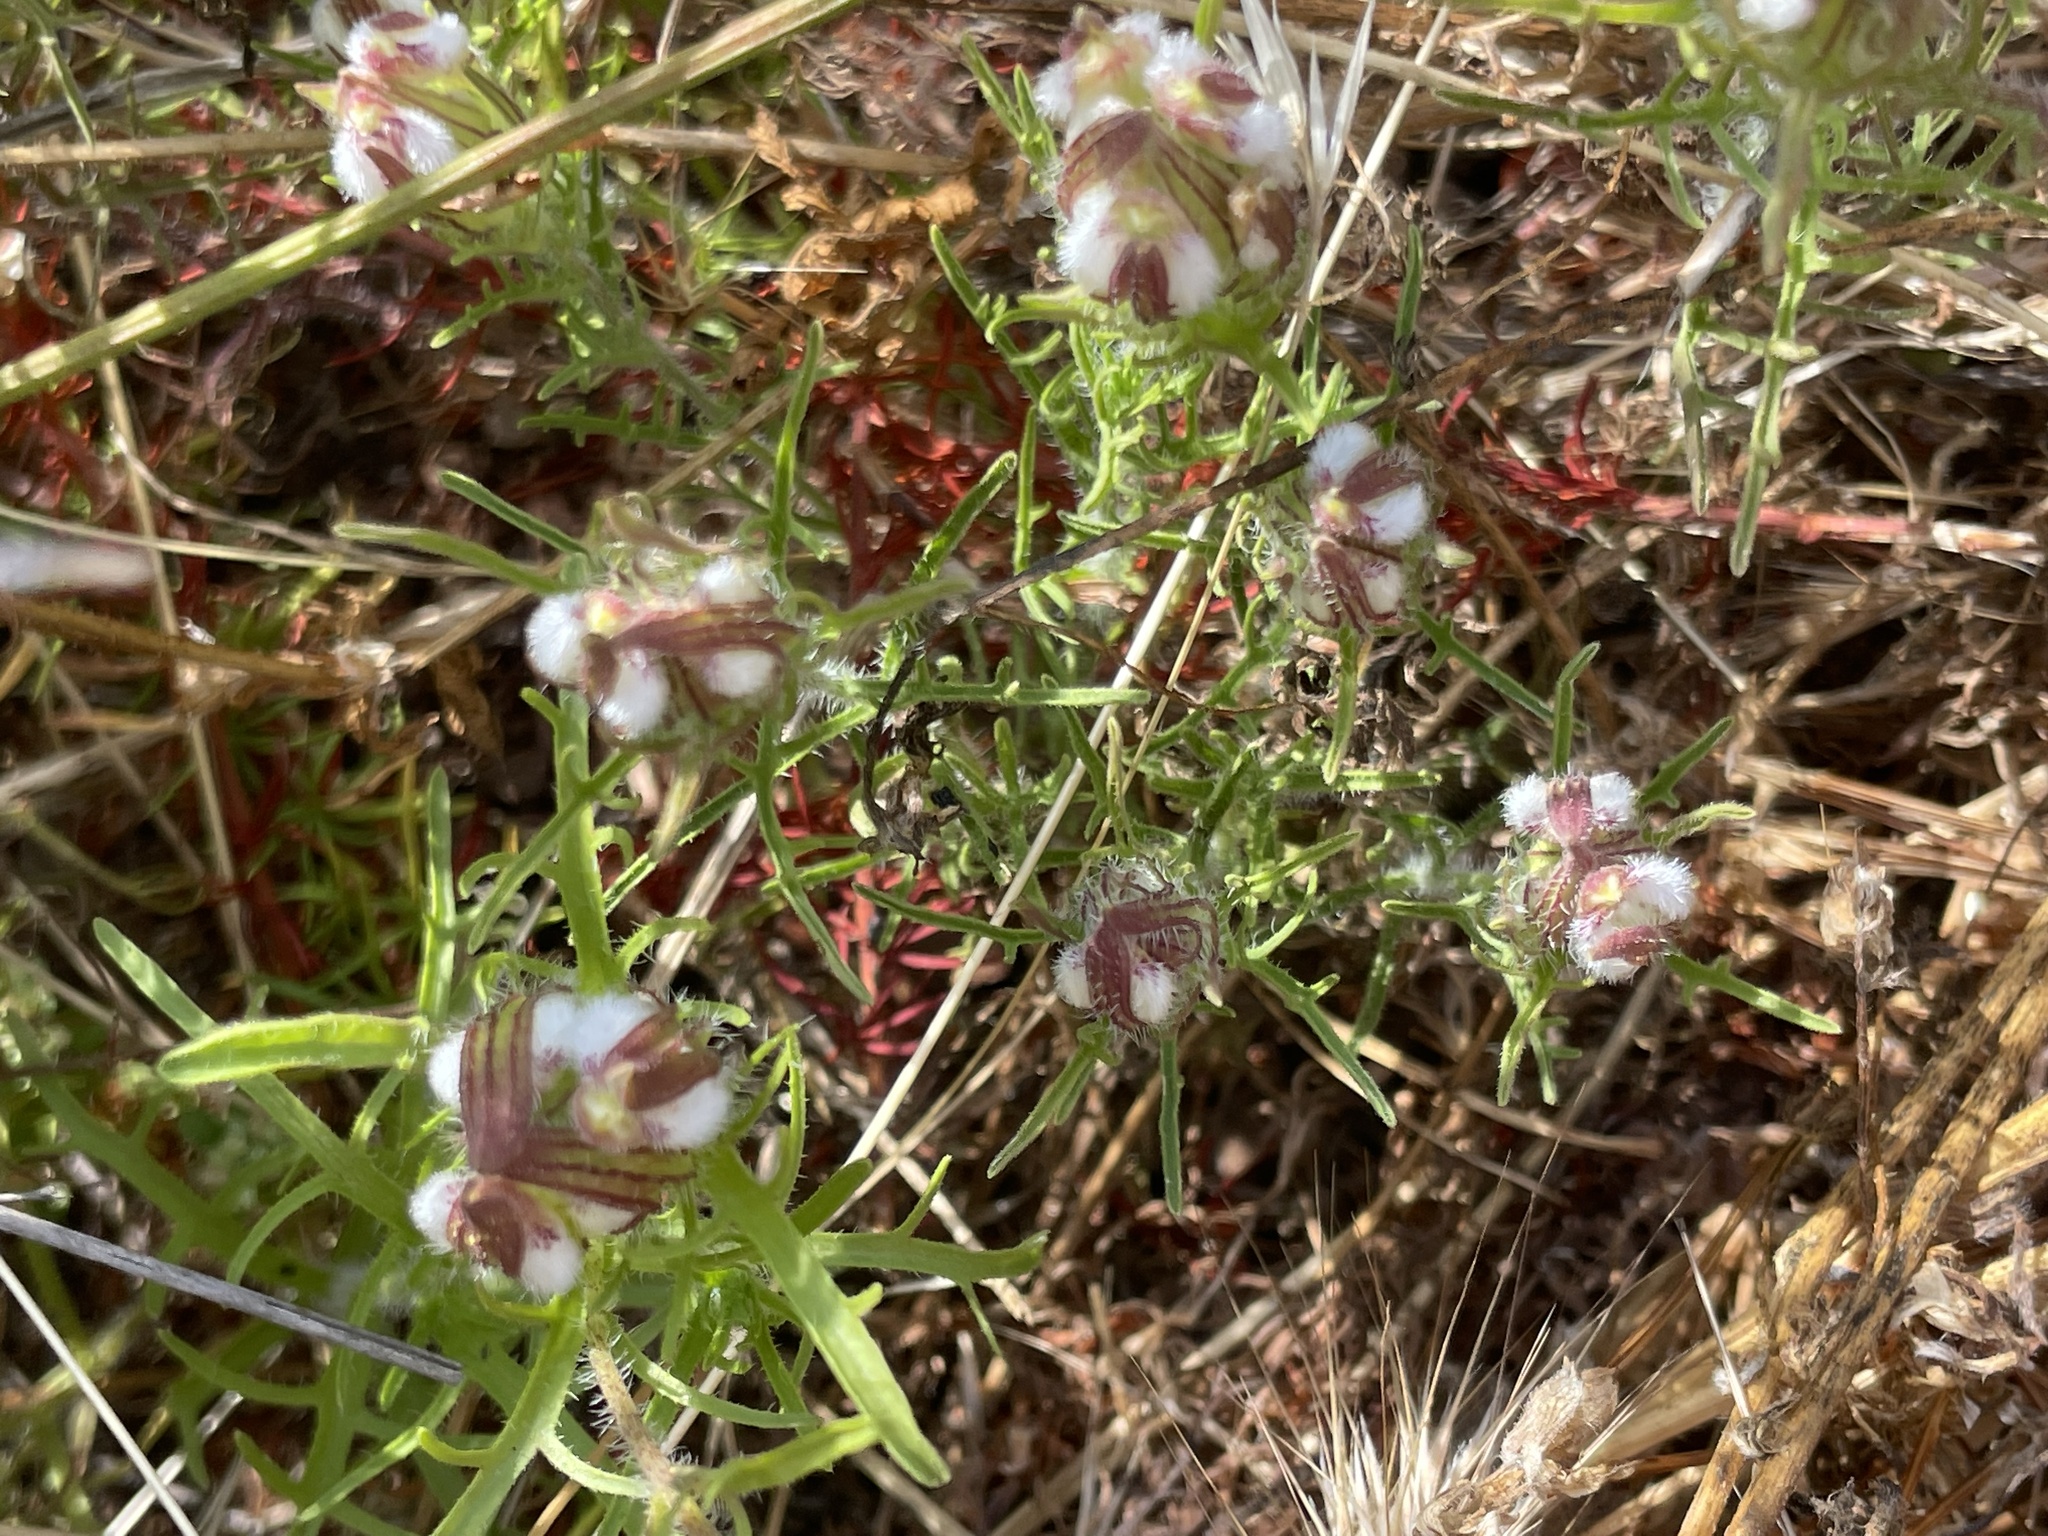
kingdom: Plantae
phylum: Tracheophyta
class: Magnoliopsida
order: Lamiales
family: Orobanchaceae
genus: Dicranostegia
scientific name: Dicranostegia orcuttiana
